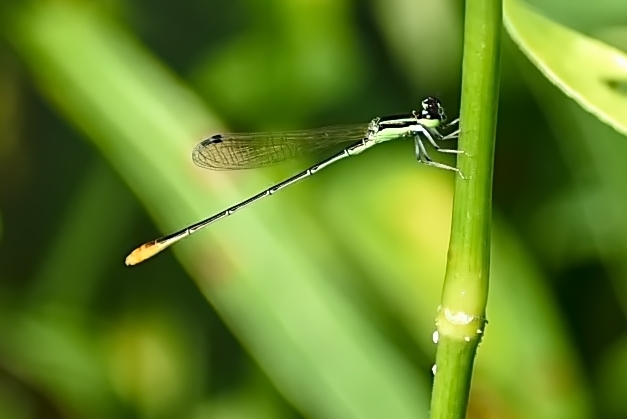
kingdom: Animalia
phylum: Arthropoda
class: Insecta
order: Odonata
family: Coenagrionidae
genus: Agriocnemis
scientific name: Agriocnemis pygmaea
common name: Pygmy wisp
